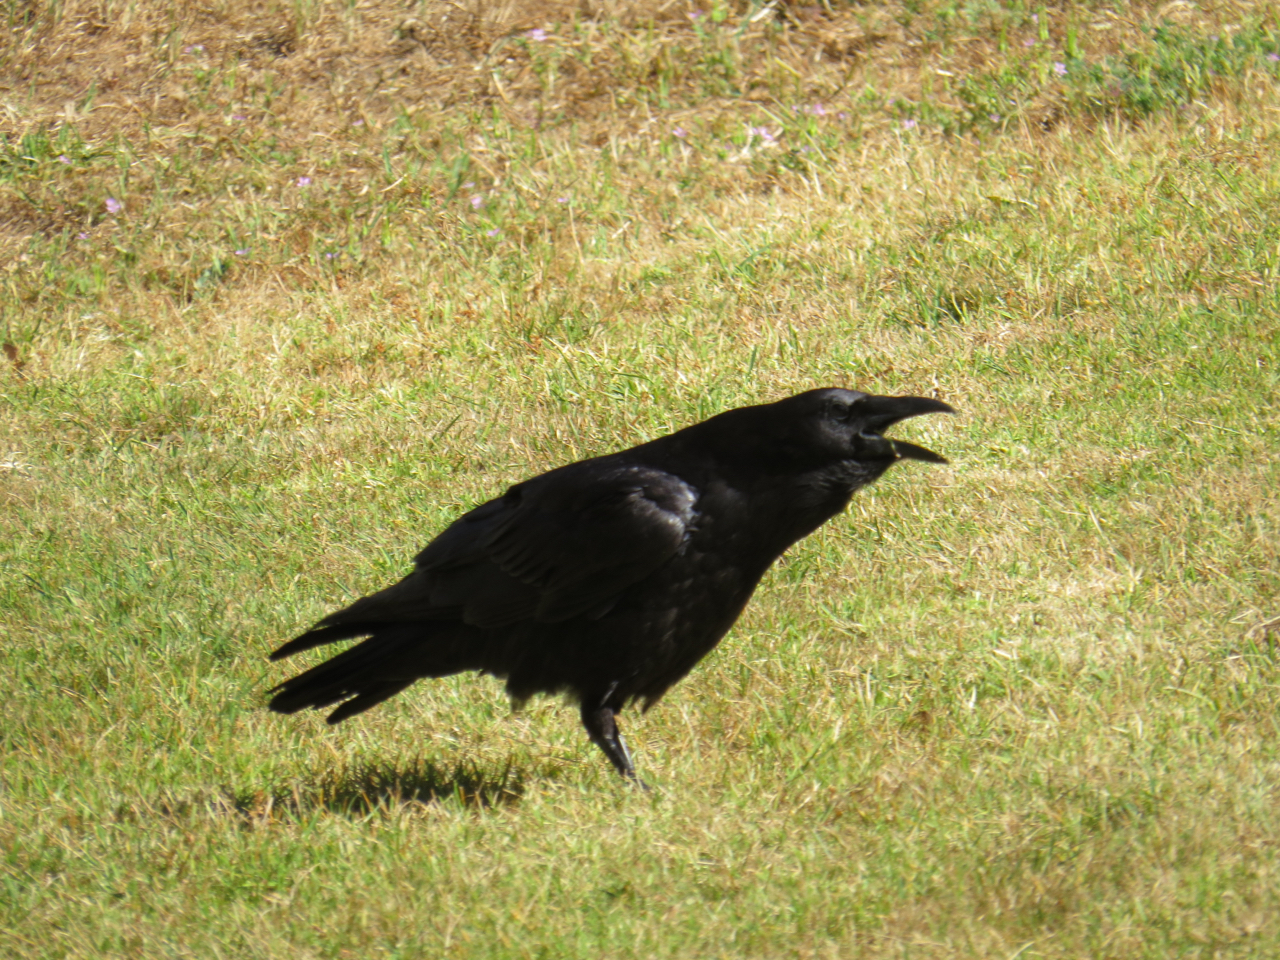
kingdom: Animalia
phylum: Chordata
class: Aves
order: Passeriformes
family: Corvidae
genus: Corvus
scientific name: Corvus corax
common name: Common raven
